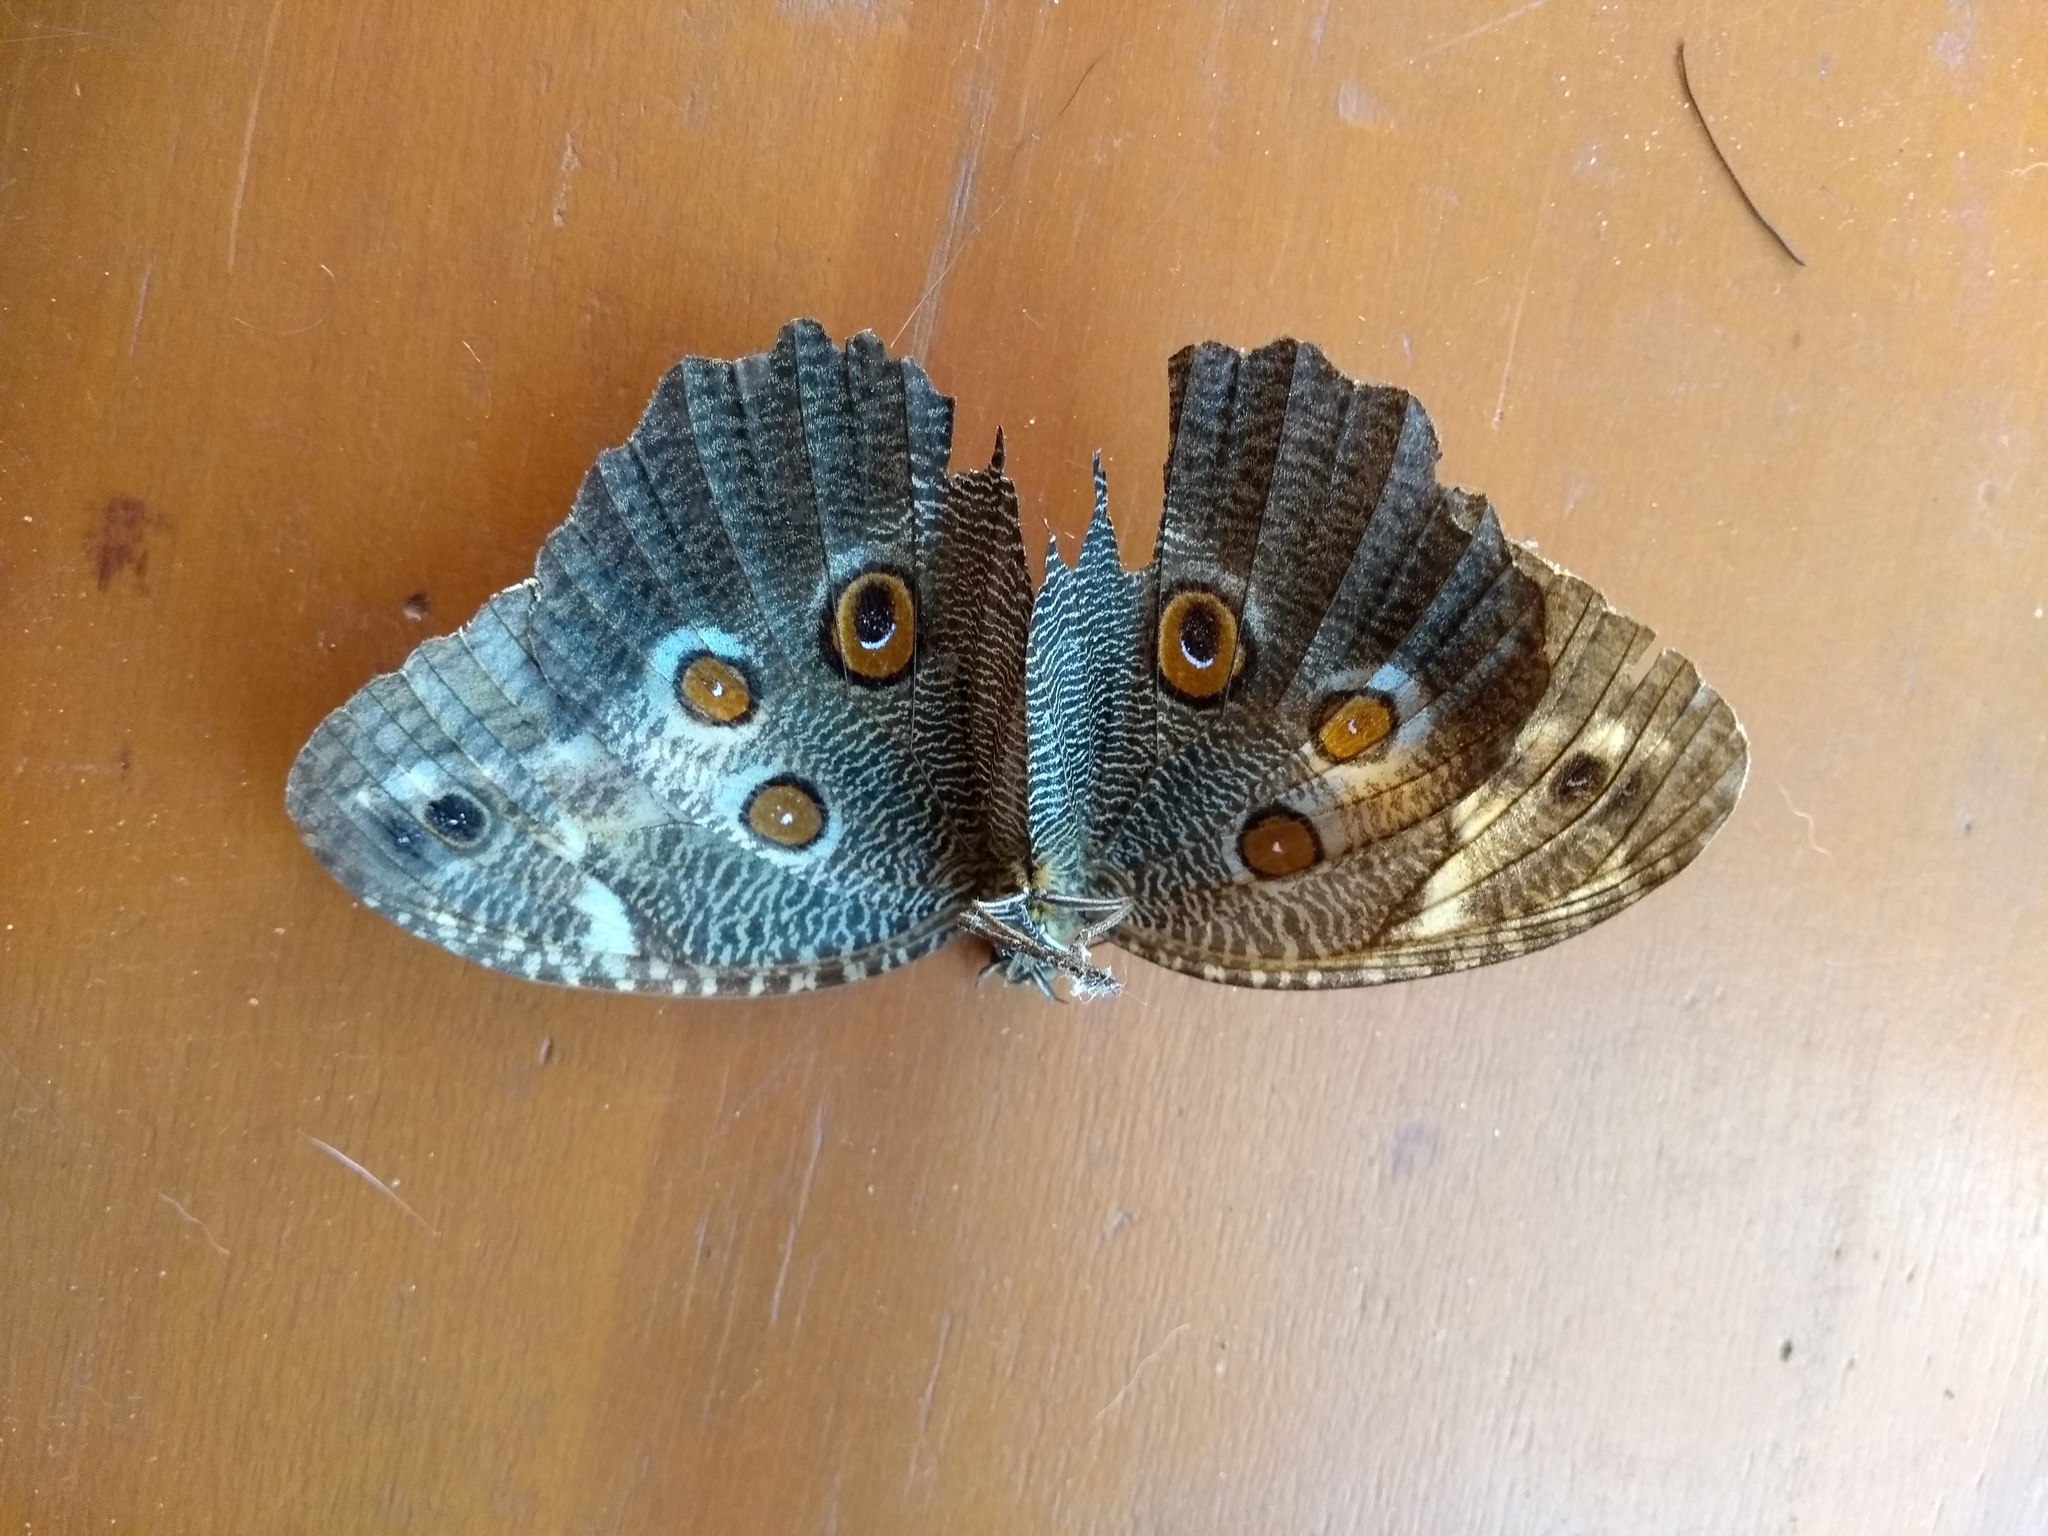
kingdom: Animalia
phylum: Arthropoda
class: Insecta
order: Lepidoptera
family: Nymphalidae
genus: Dasyophthalma
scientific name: Dasyophthalma creusa
